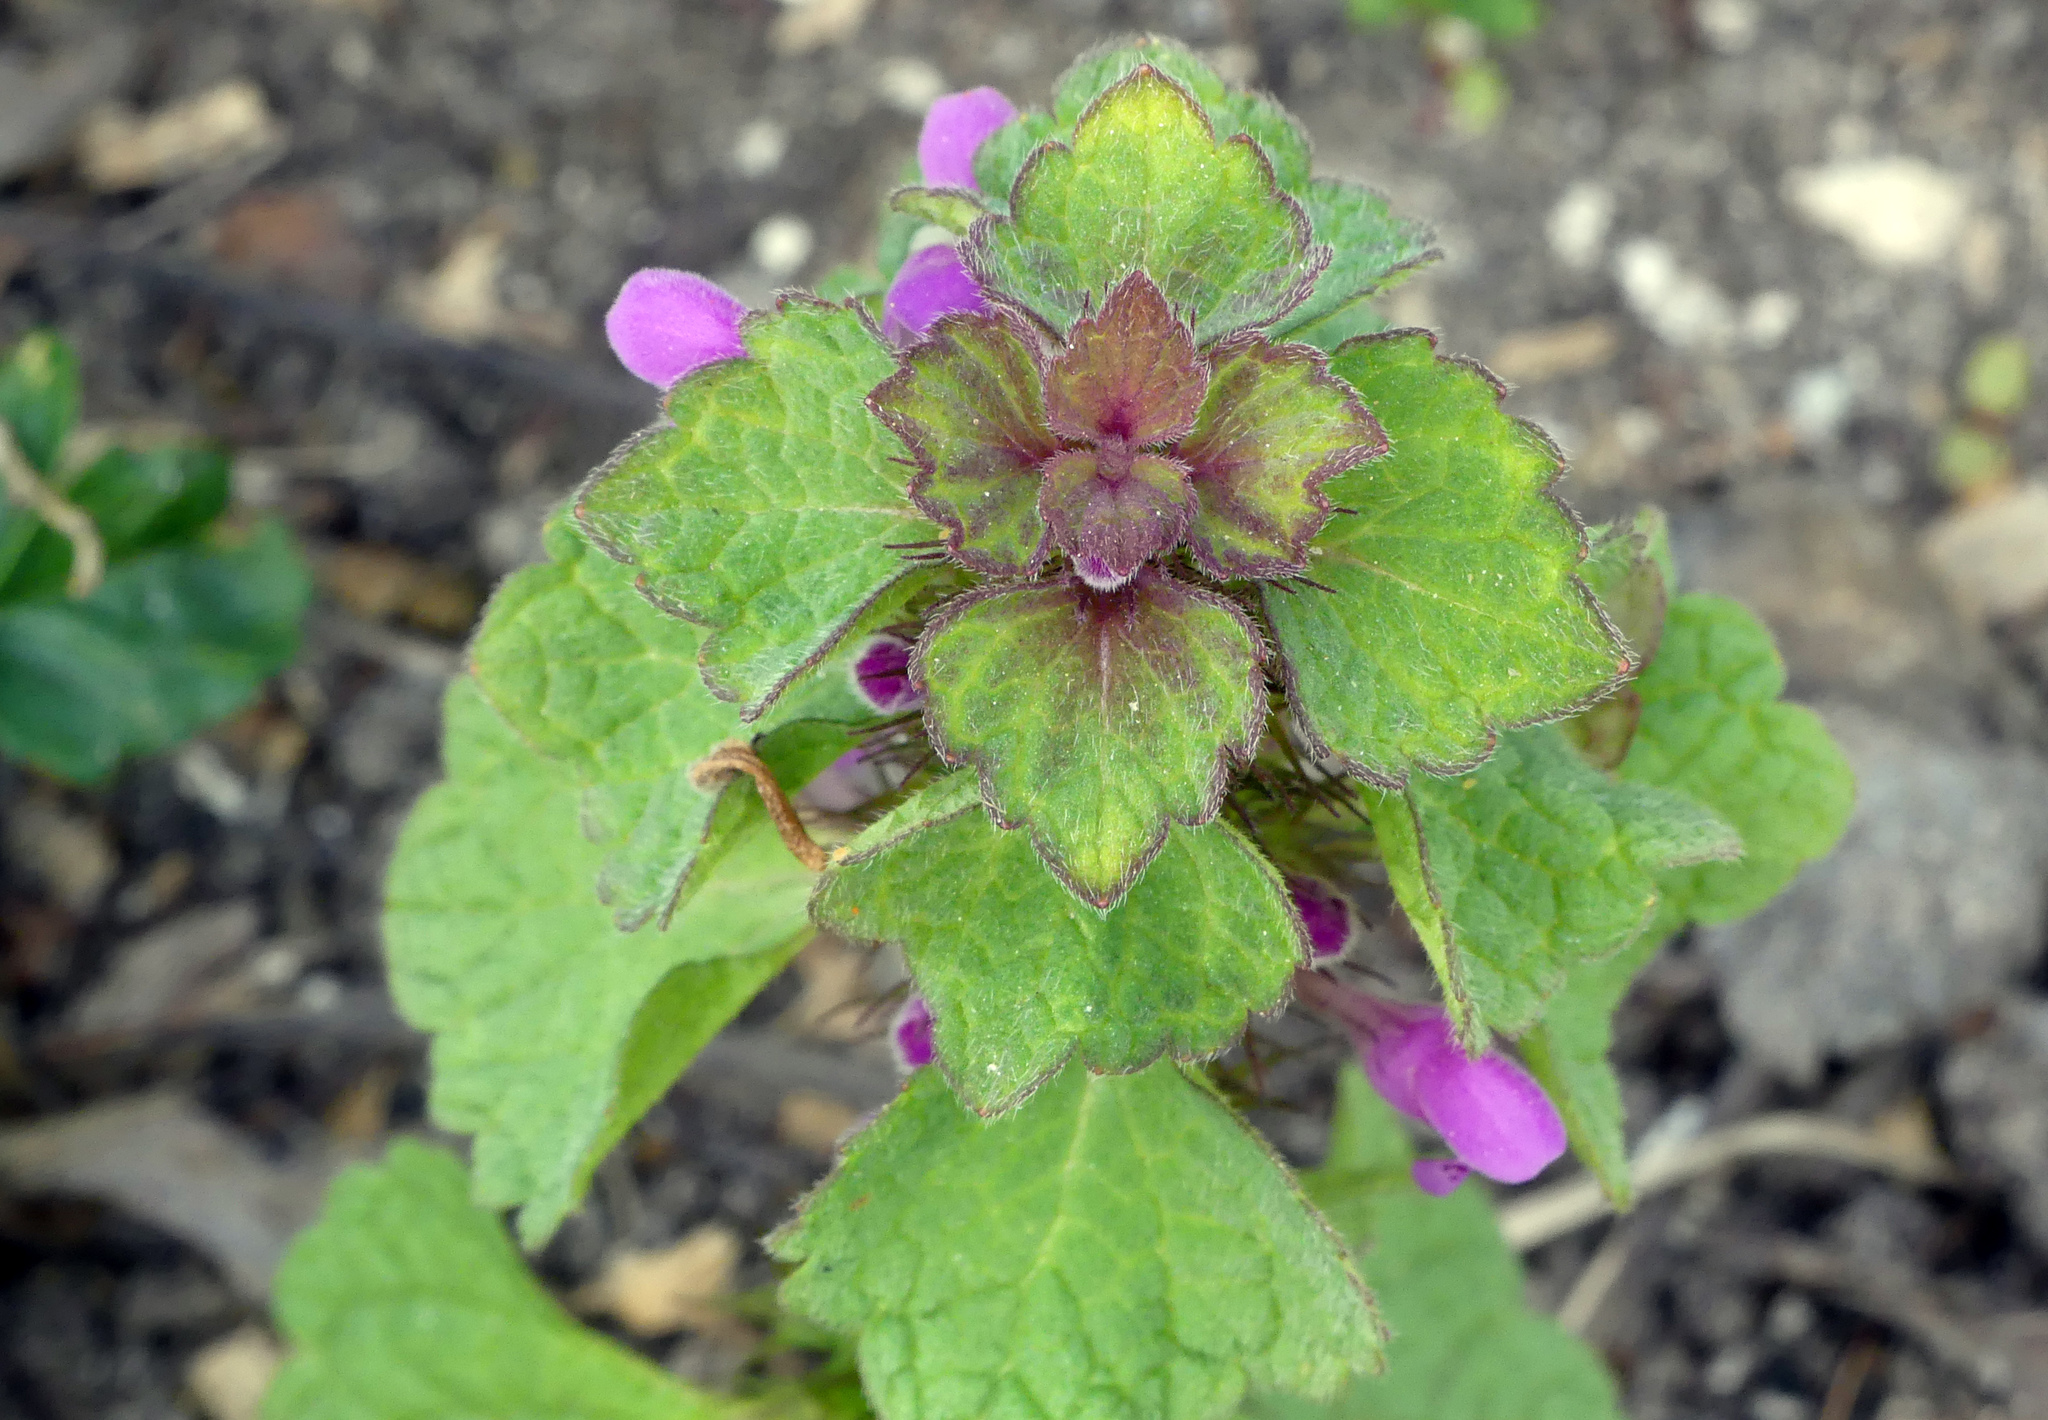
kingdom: Plantae
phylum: Tracheophyta
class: Magnoliopsida
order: Lamiales
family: Lamiaceae
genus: Lamium
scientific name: Lamium purpureum
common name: Red dead-nettle
